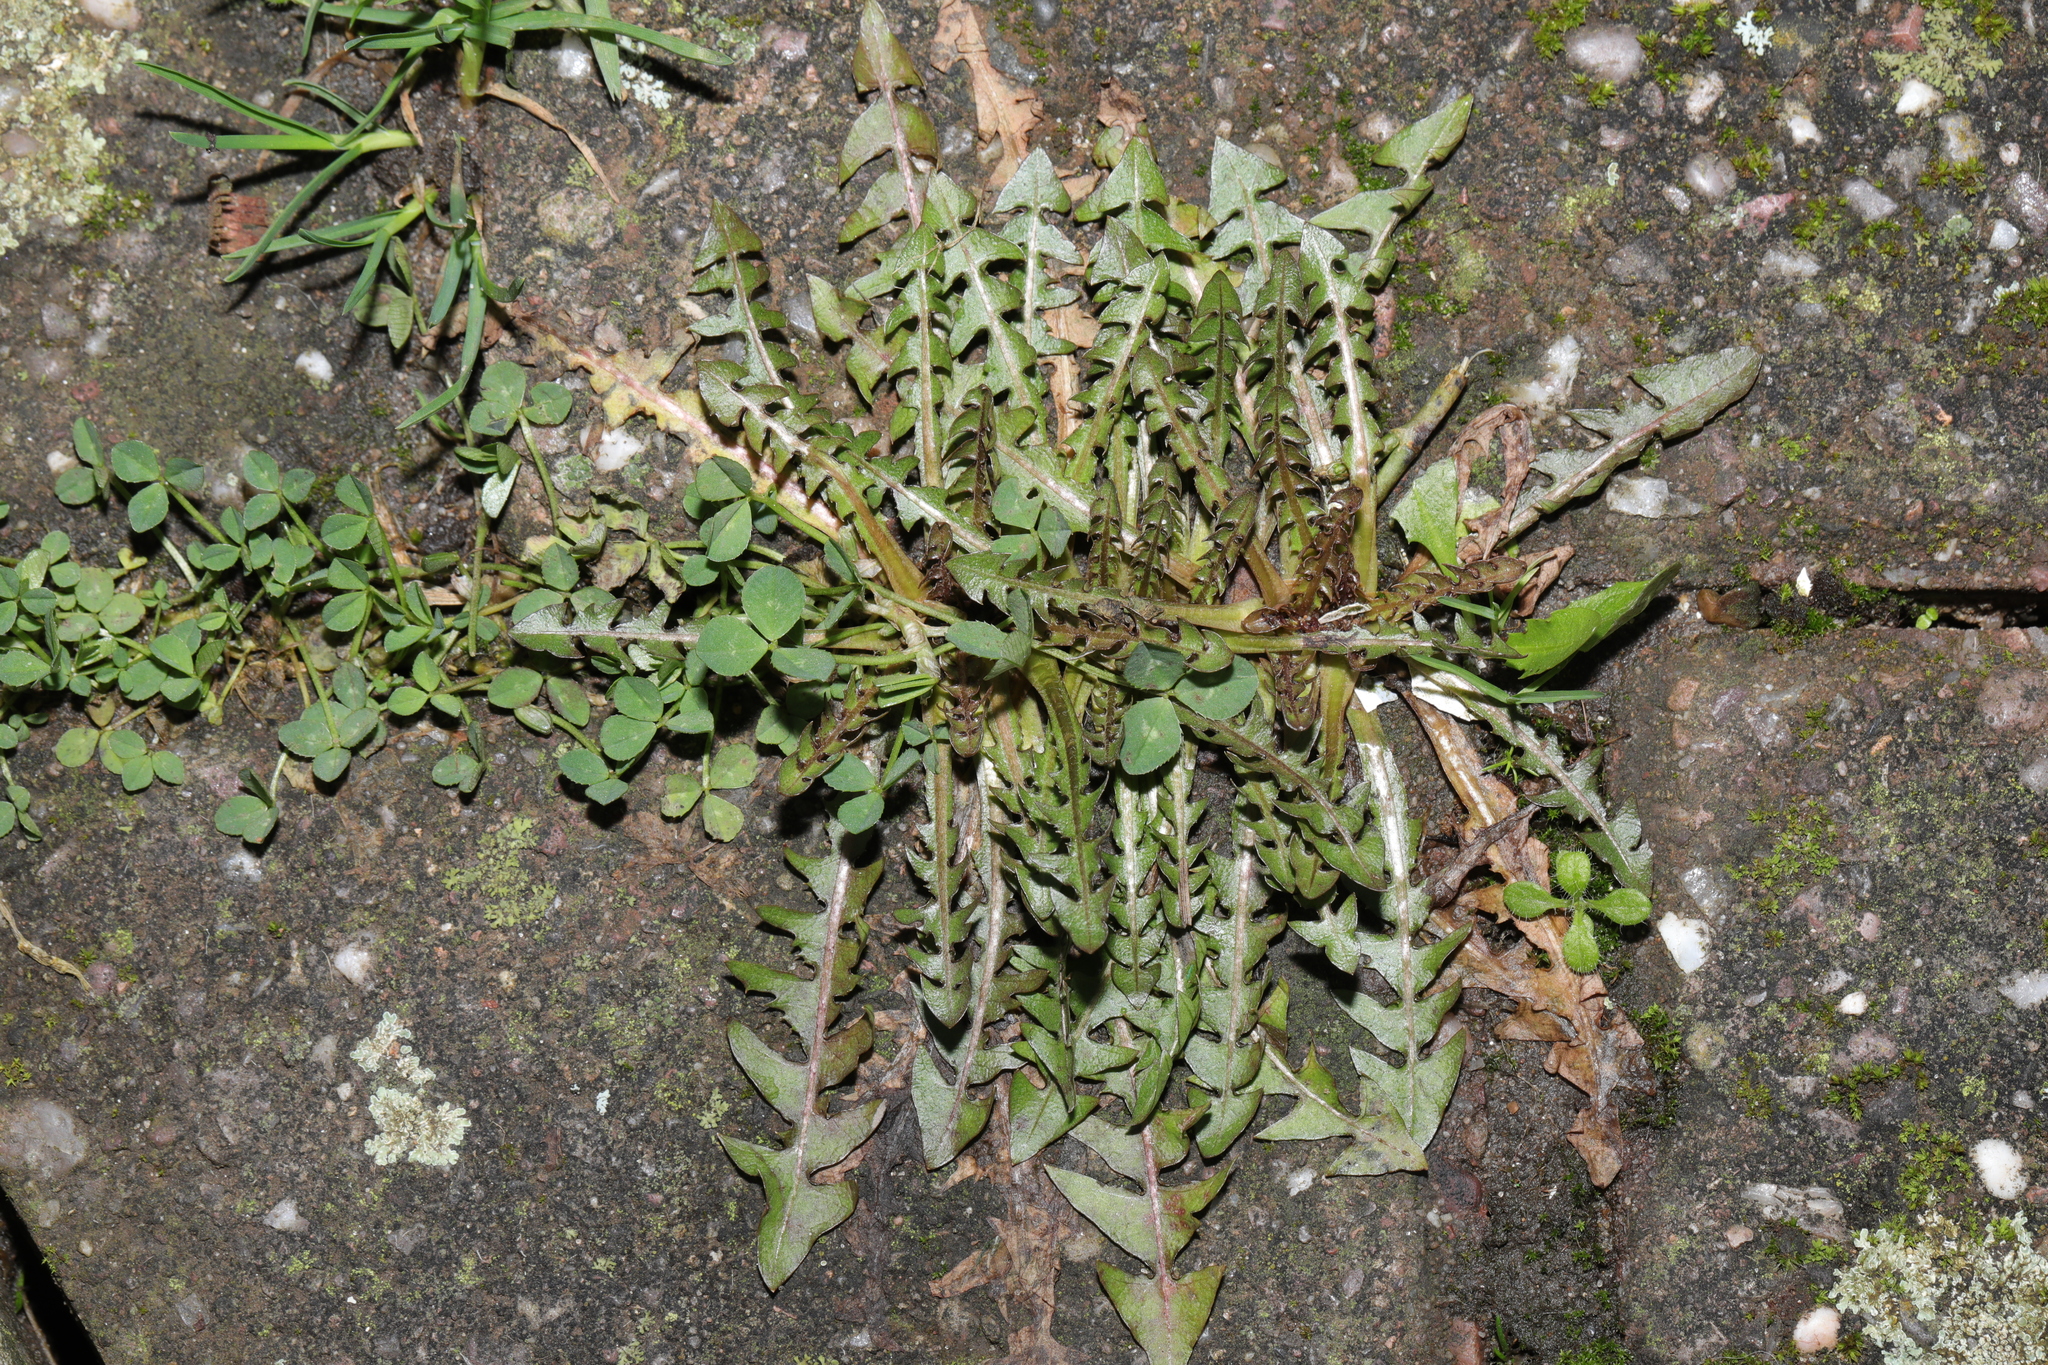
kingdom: Plantae
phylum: Tracheophyta
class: Magnoliopsida
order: Asterales
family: Asteraceae
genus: Taraxacum
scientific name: Taraxacum officinale
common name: Common dandelion
